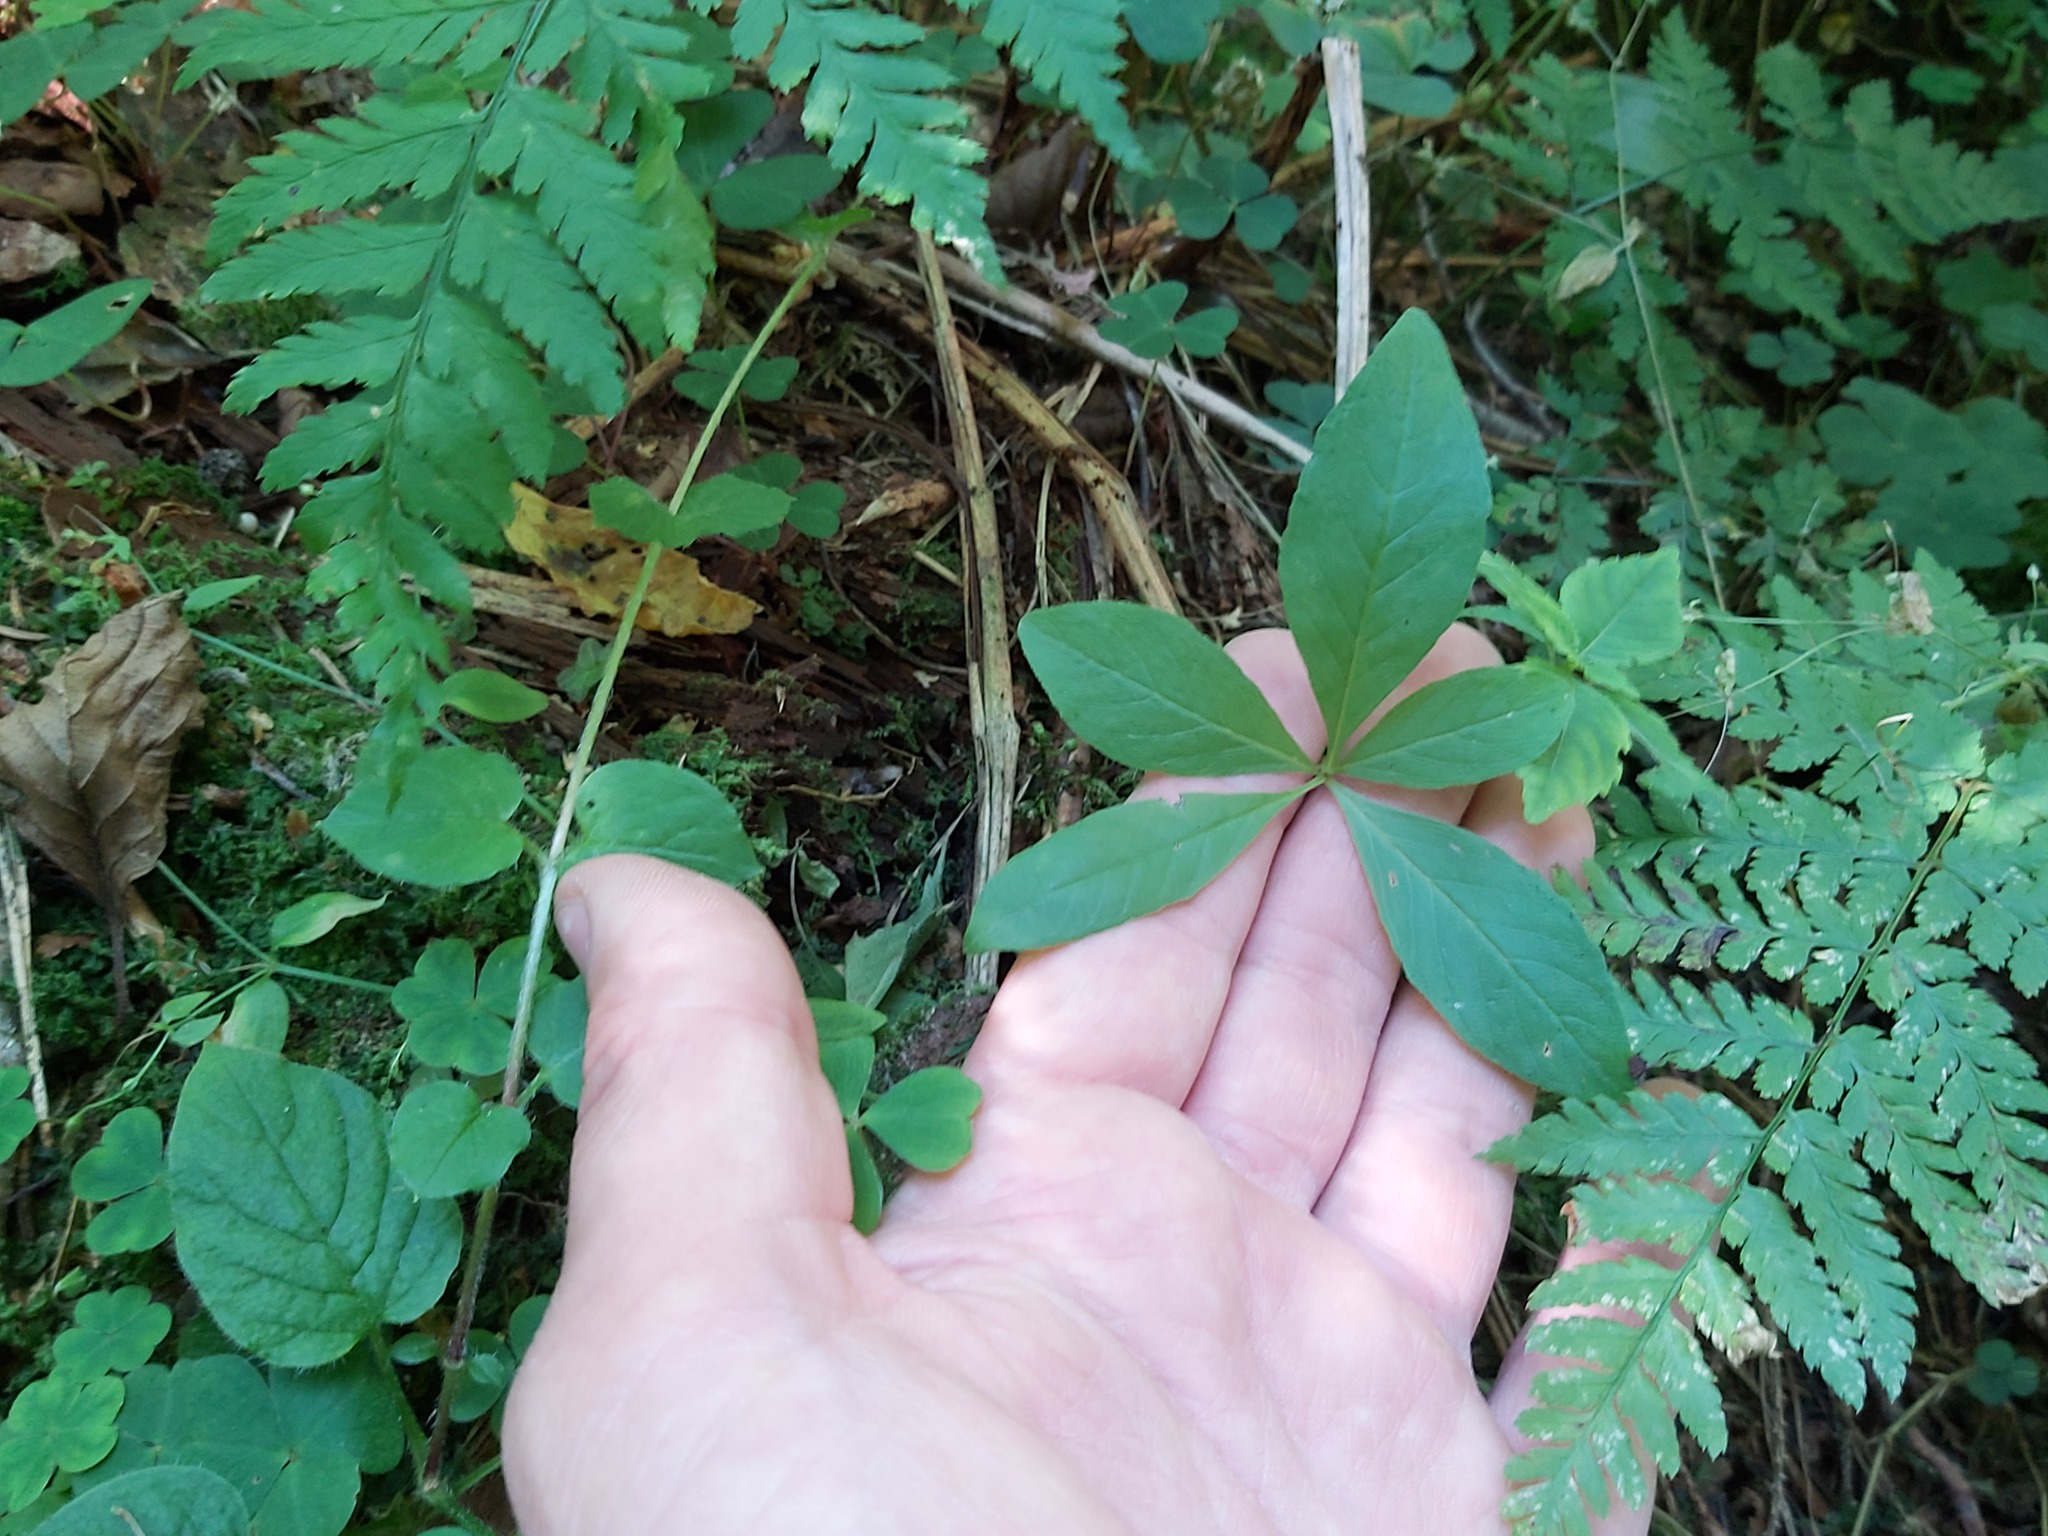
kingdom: Plantae
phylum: Tracheophyta
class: Magnoliopsida
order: Ericales
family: Primulaceae
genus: Lysimachia
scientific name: Lysimachia europaea
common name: Arctic starflower
